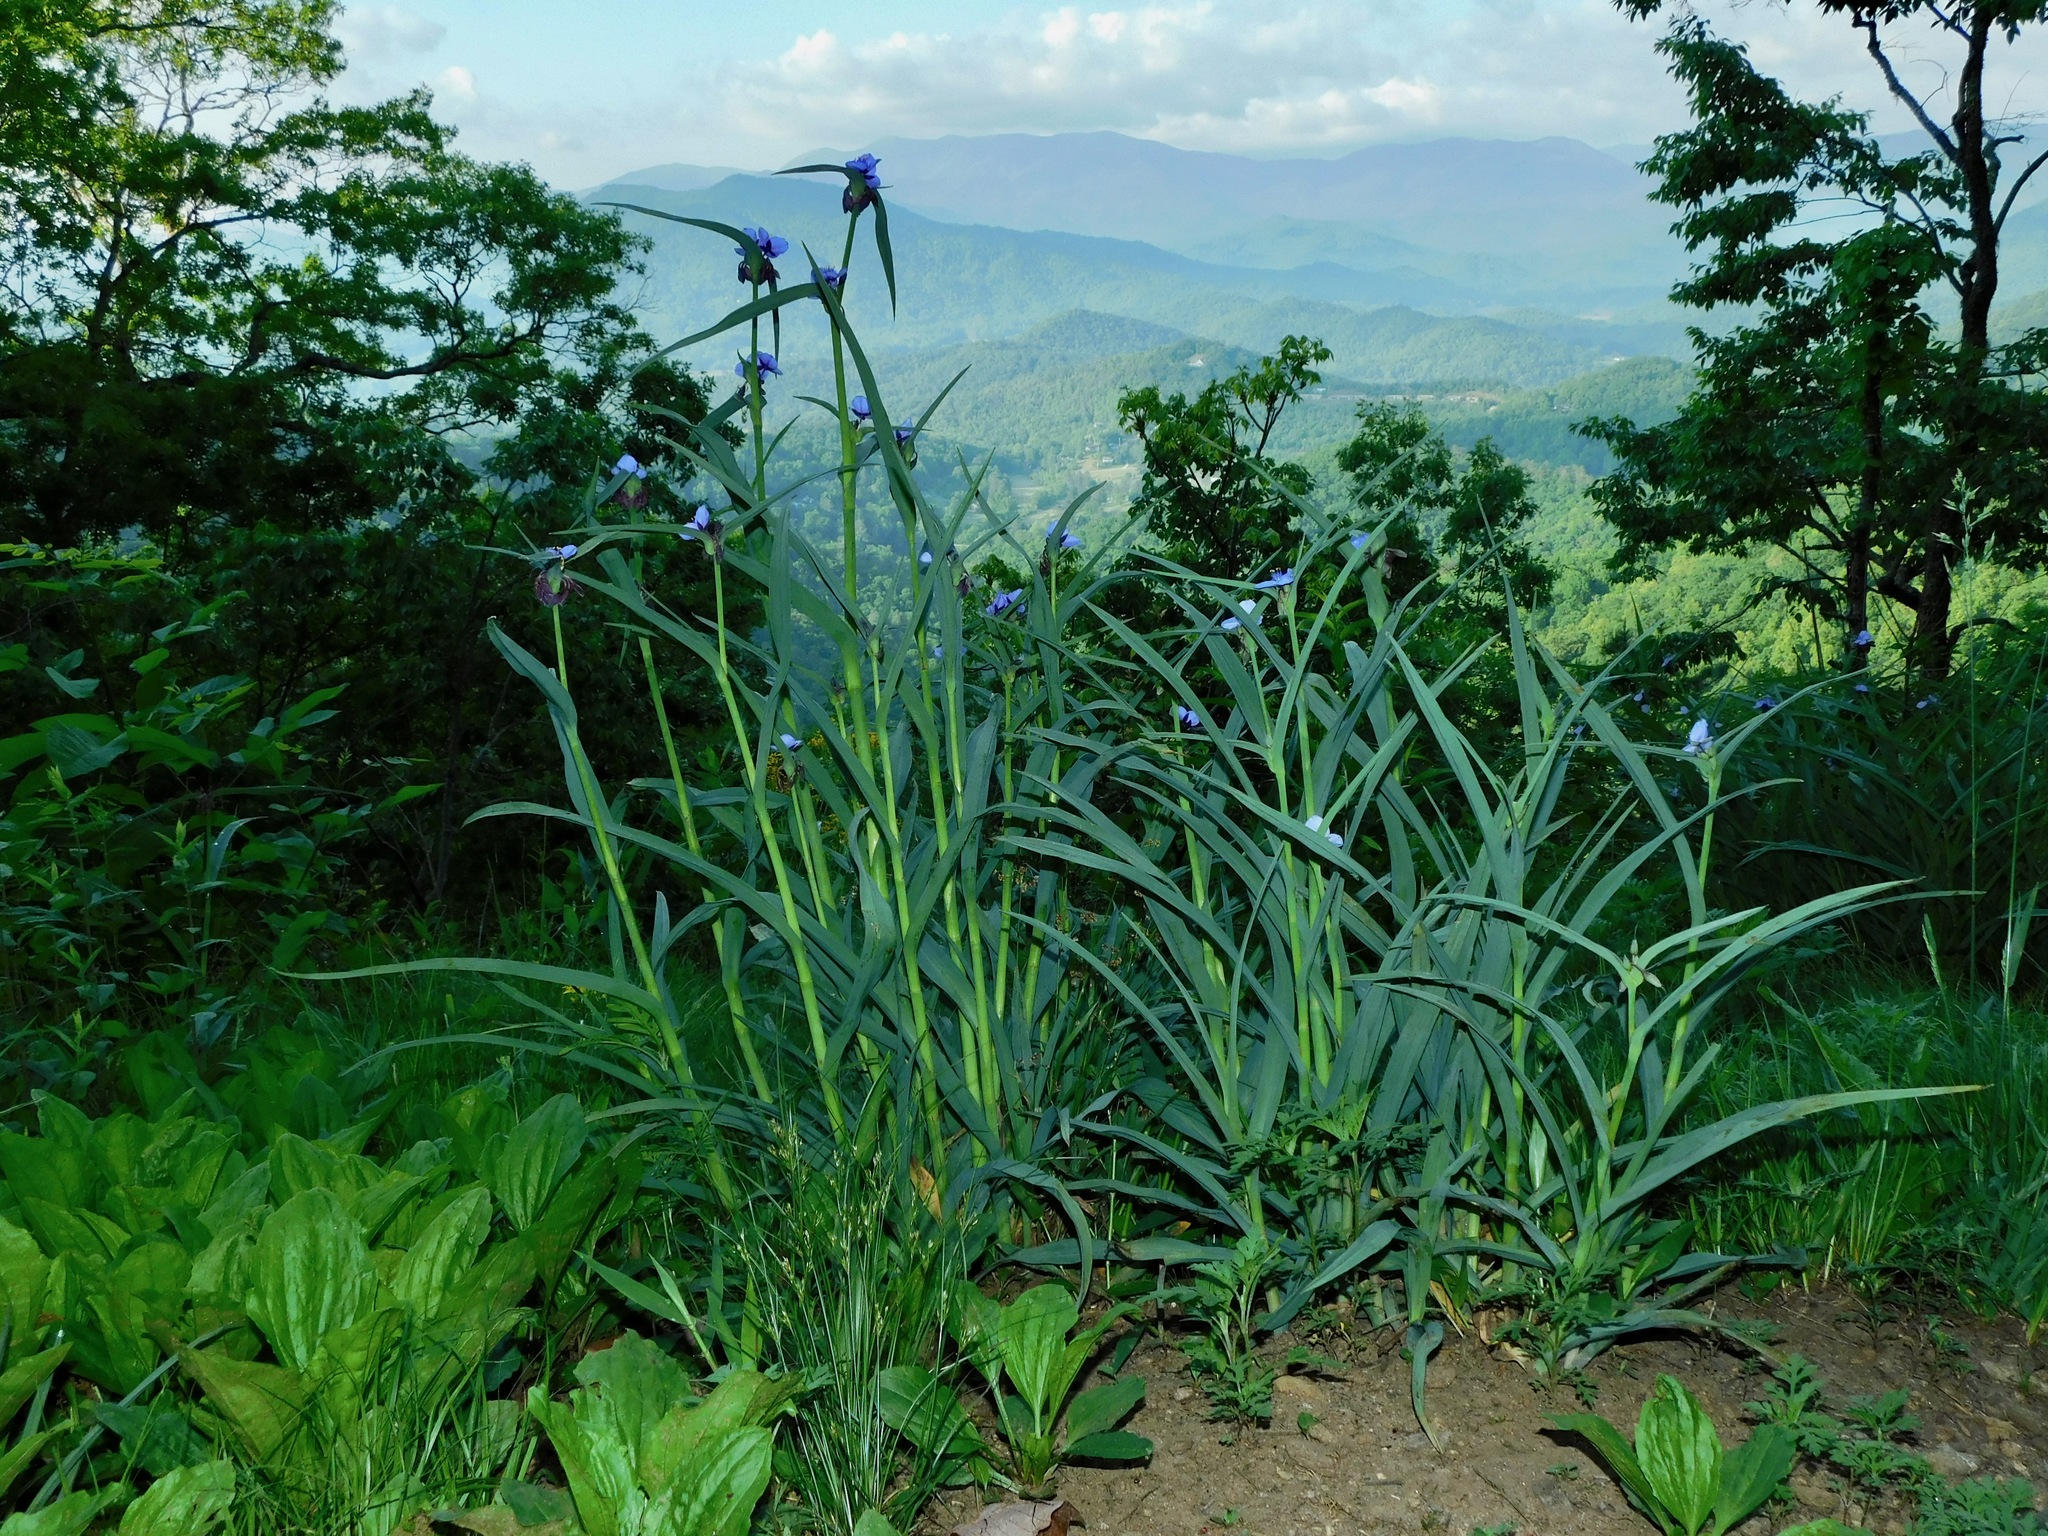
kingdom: Plantae
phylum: Tracheophyta
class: Liliopsida
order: Commelinales
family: Commelinaceae
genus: Tradescantia
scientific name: Tradescantia ohiensis
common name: Ohio spiderwort
